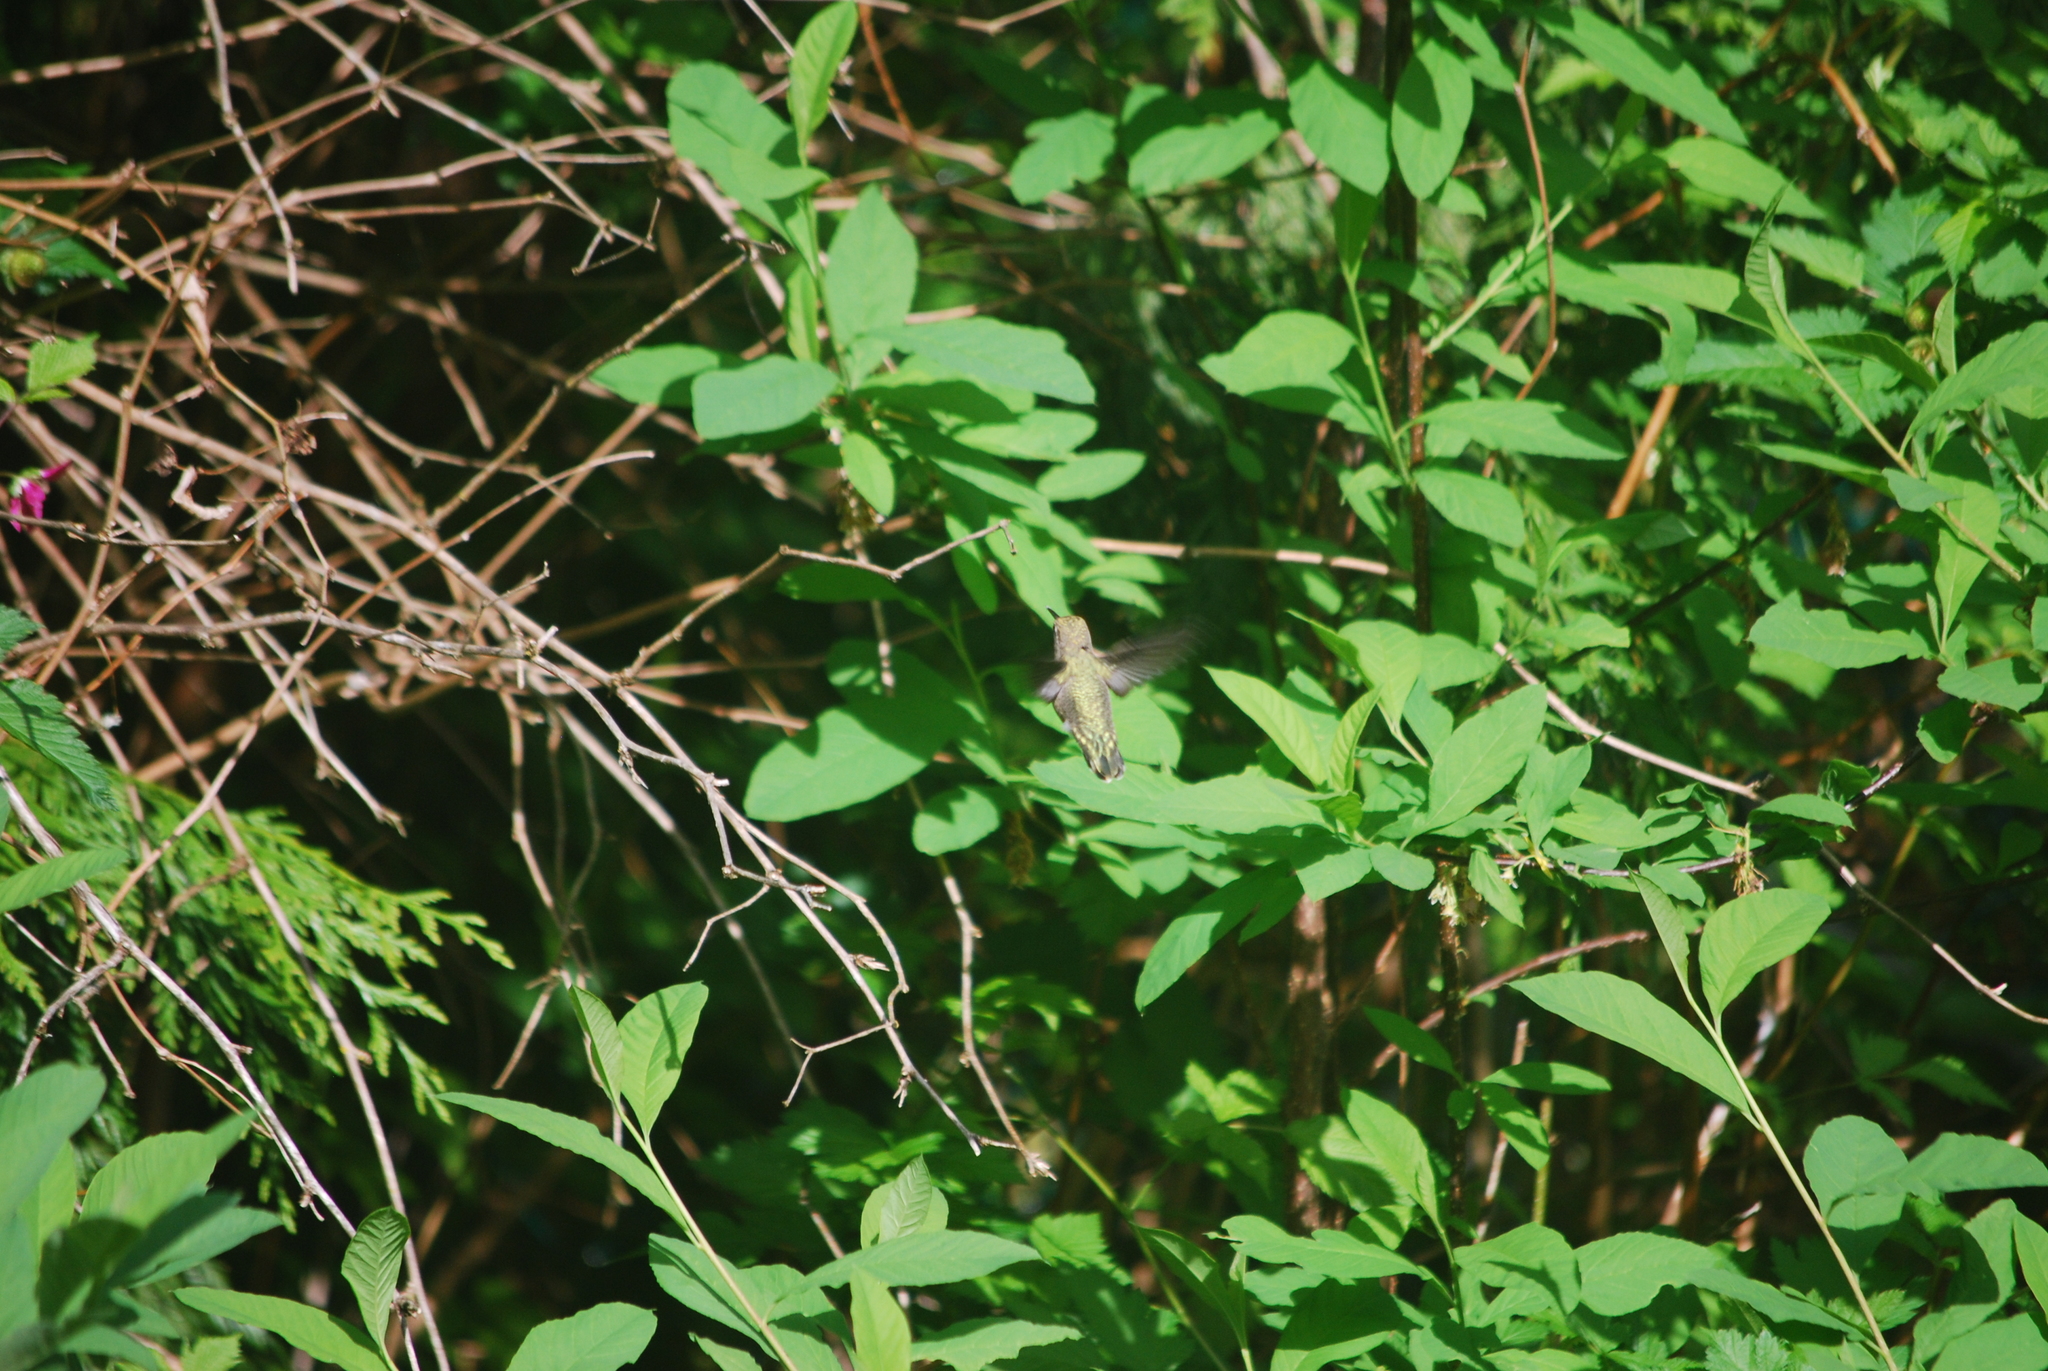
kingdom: Animalia
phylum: Chordata
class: Aves
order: Apodiformes
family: Trochilidae
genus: Calypte
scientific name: Calypte anna
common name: Anna's hummingbird
